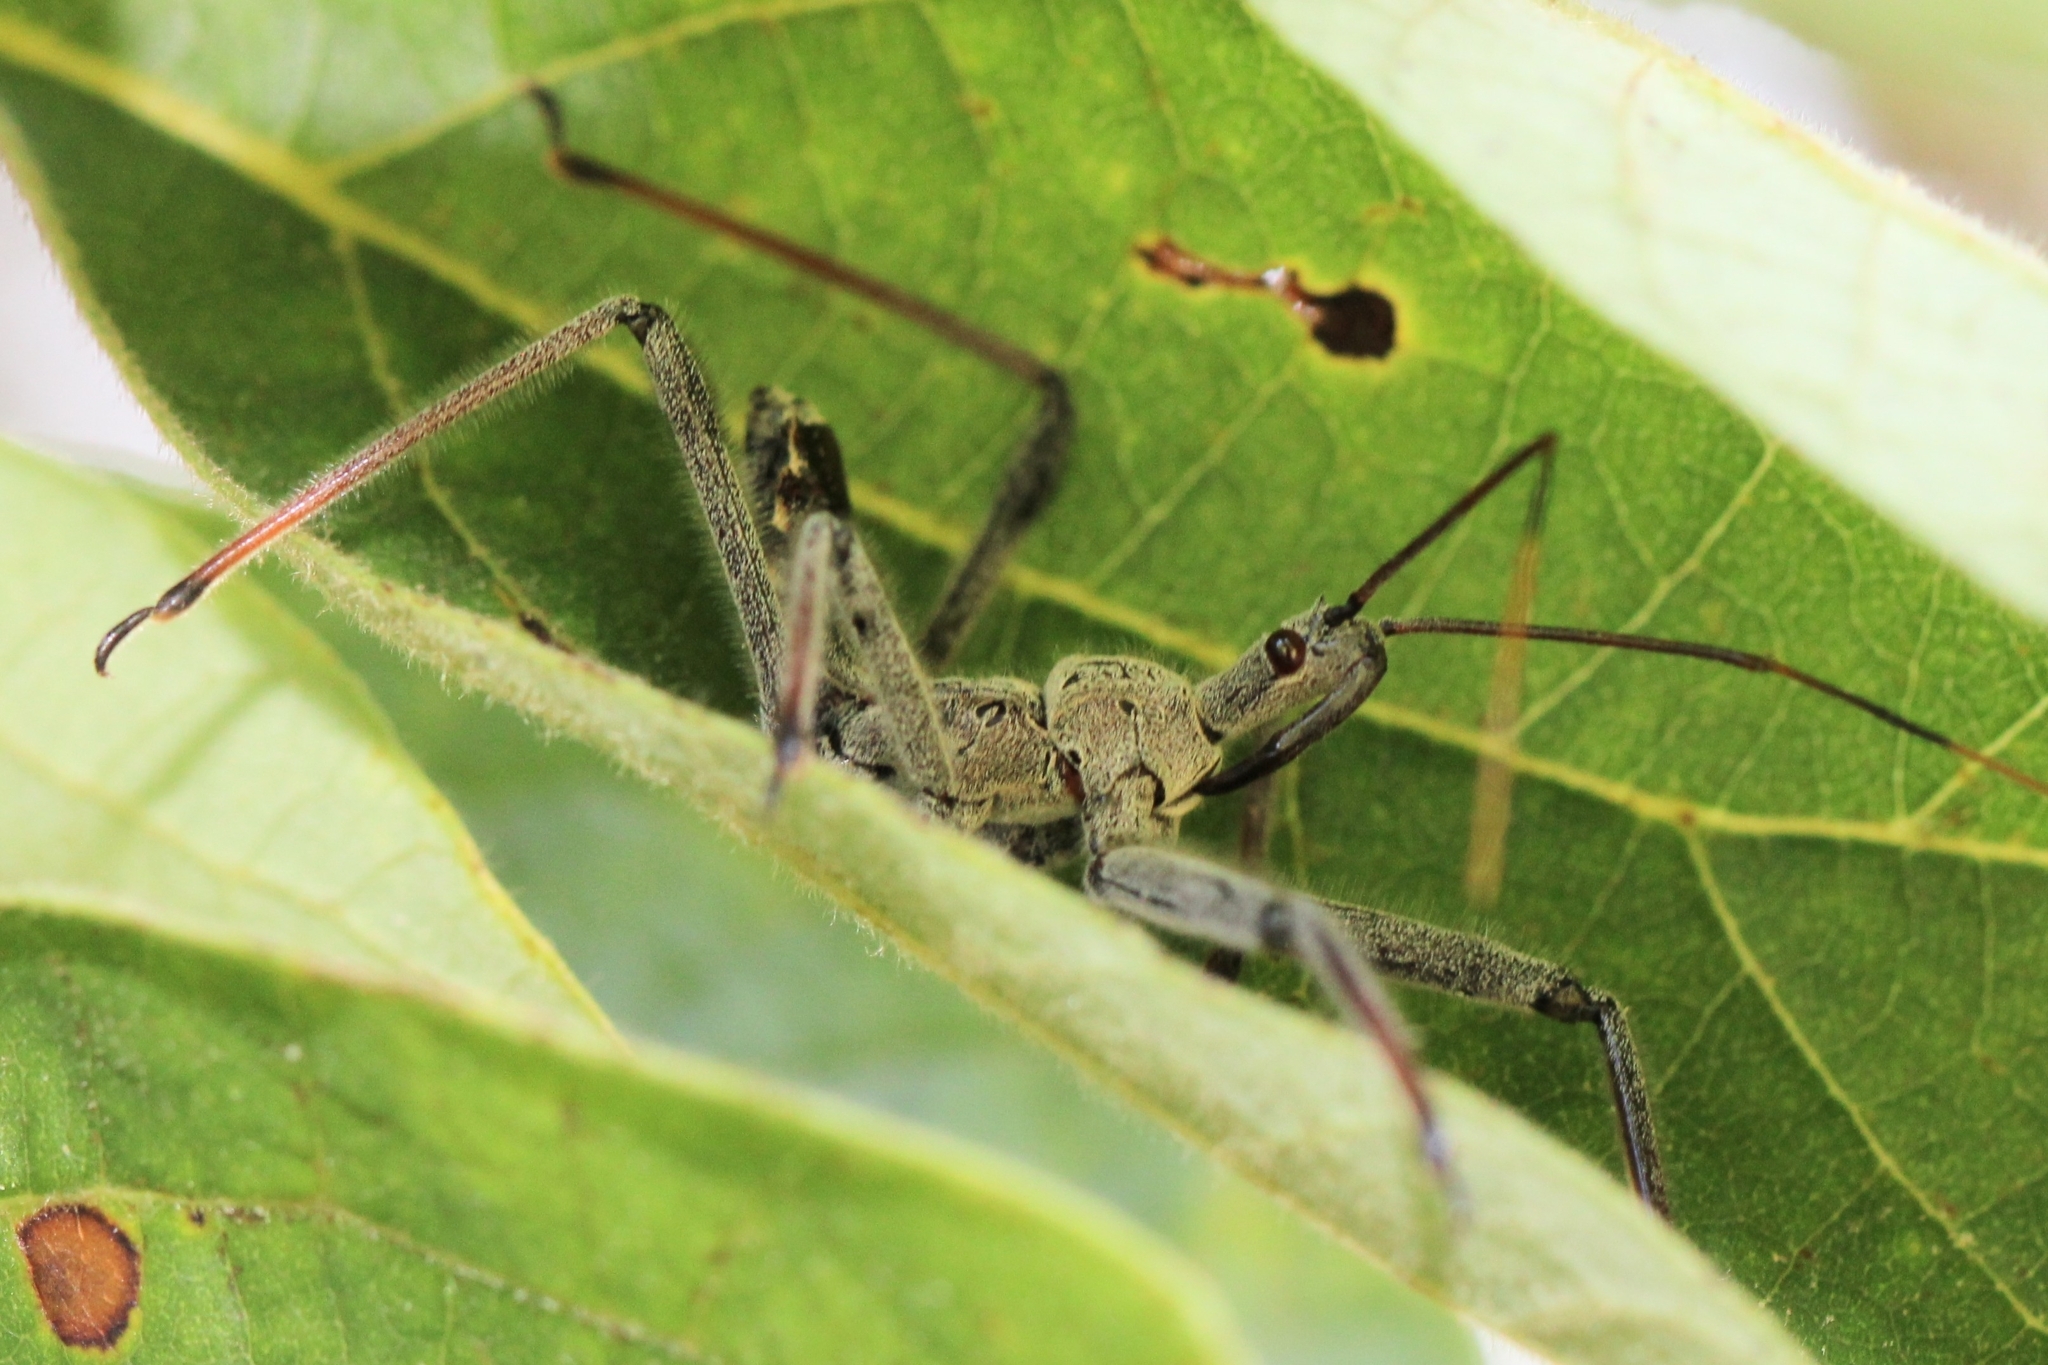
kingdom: Animalia
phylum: Arthropoda
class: Insecta
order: Hemiptera
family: Reduviidae
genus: Arilus
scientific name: Arilus cristatus
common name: North american wheel bug
